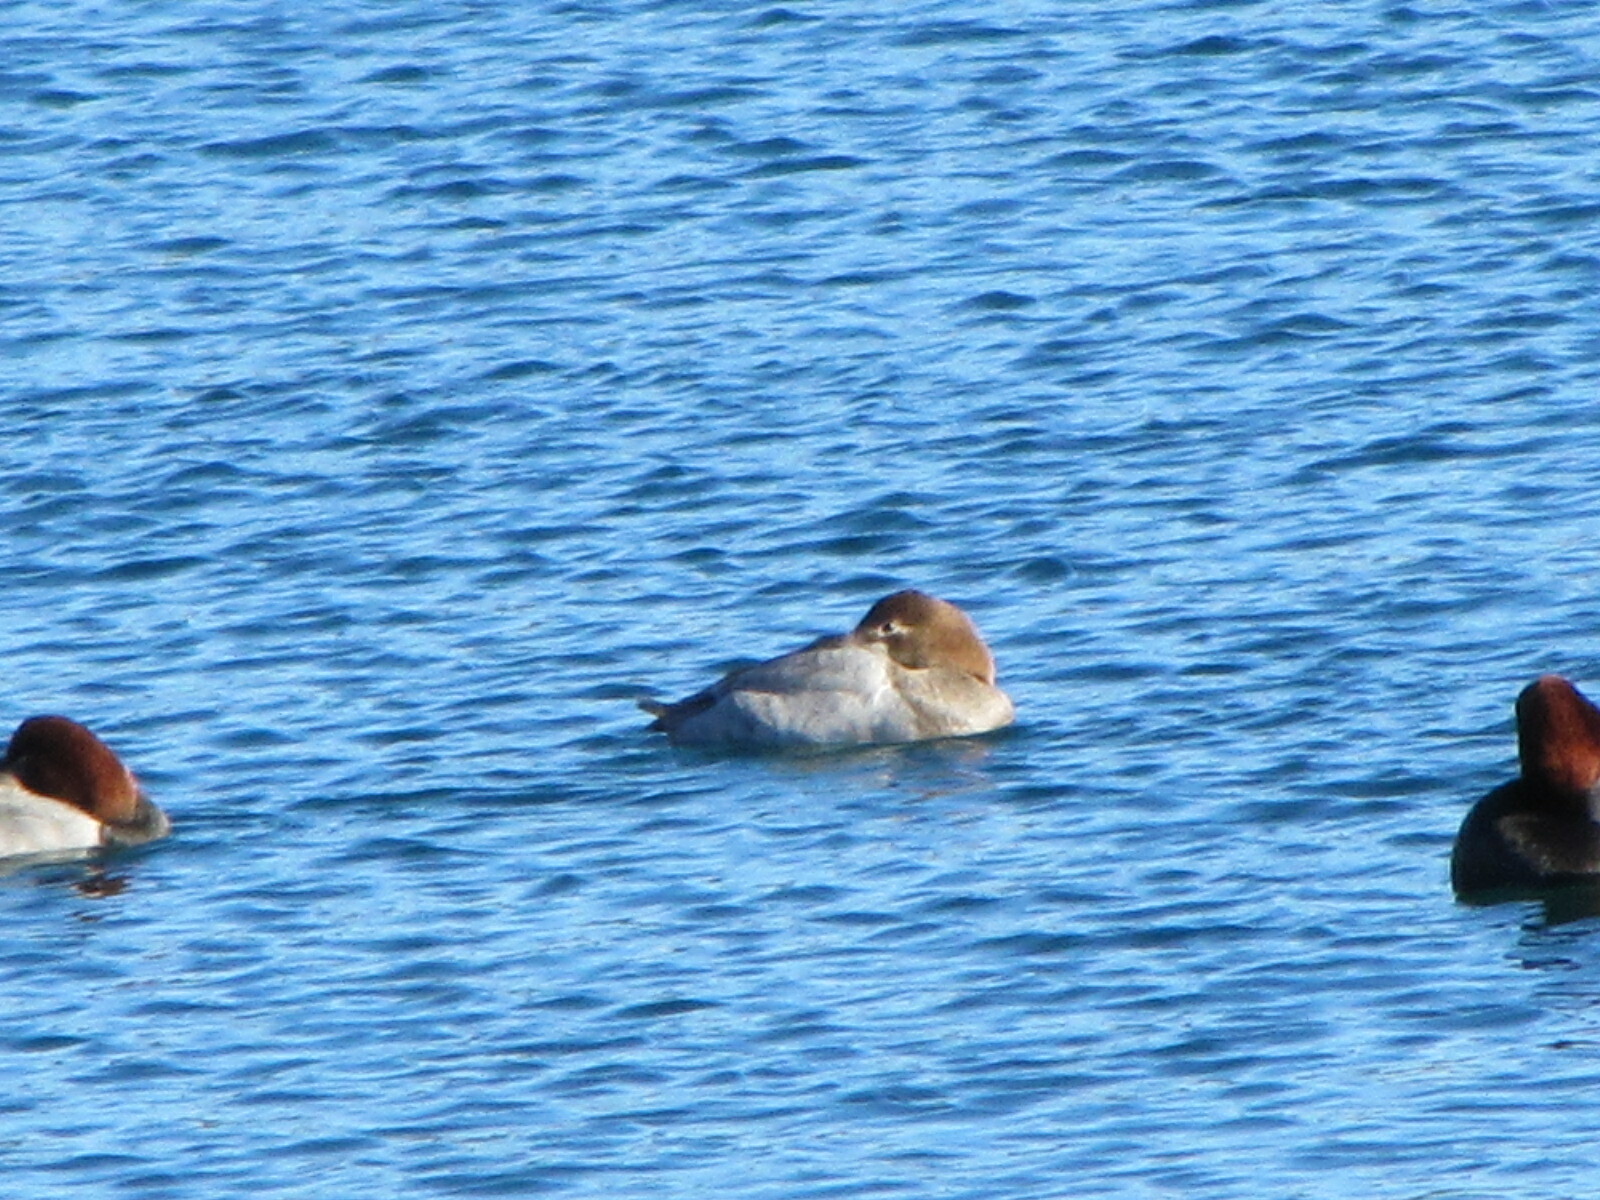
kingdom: Animalia
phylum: Chordata
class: Aves
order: Anseriformes
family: Anatidae
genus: Aythya
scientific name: Aythya valisineria
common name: Canvasback
